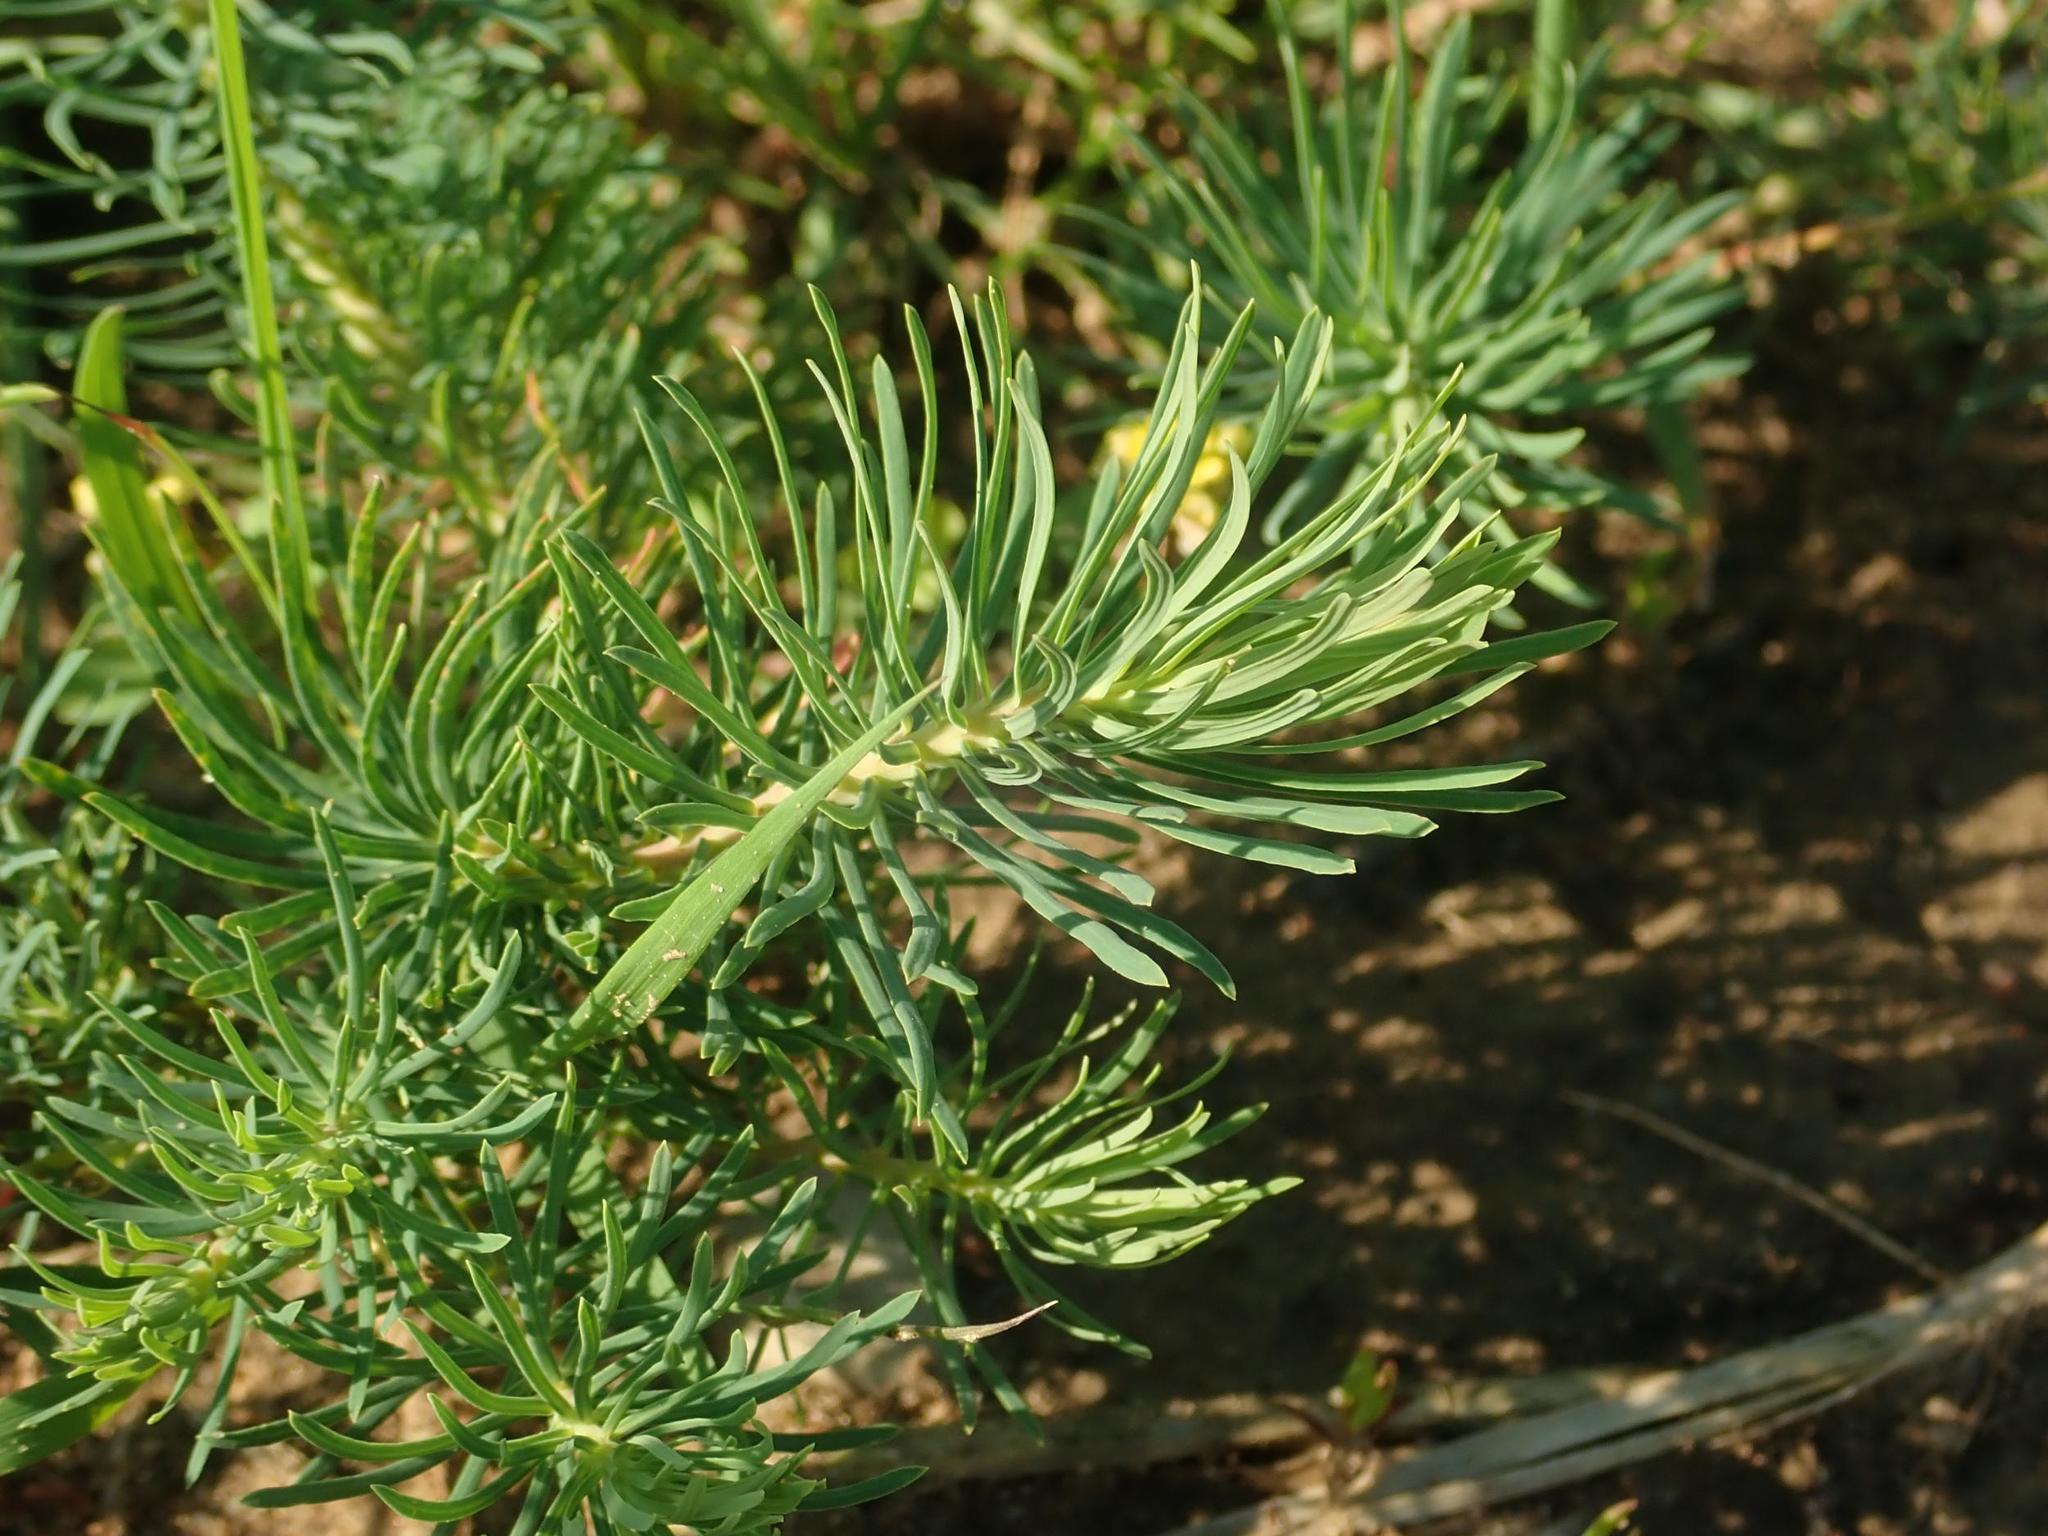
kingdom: Plantae
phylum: Tracheophyta
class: Magnoliopsida
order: Malpighiales
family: Euphorbiaceae
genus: Euphorbia
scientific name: Euphorbia cyparissias
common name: Cypress spurge
